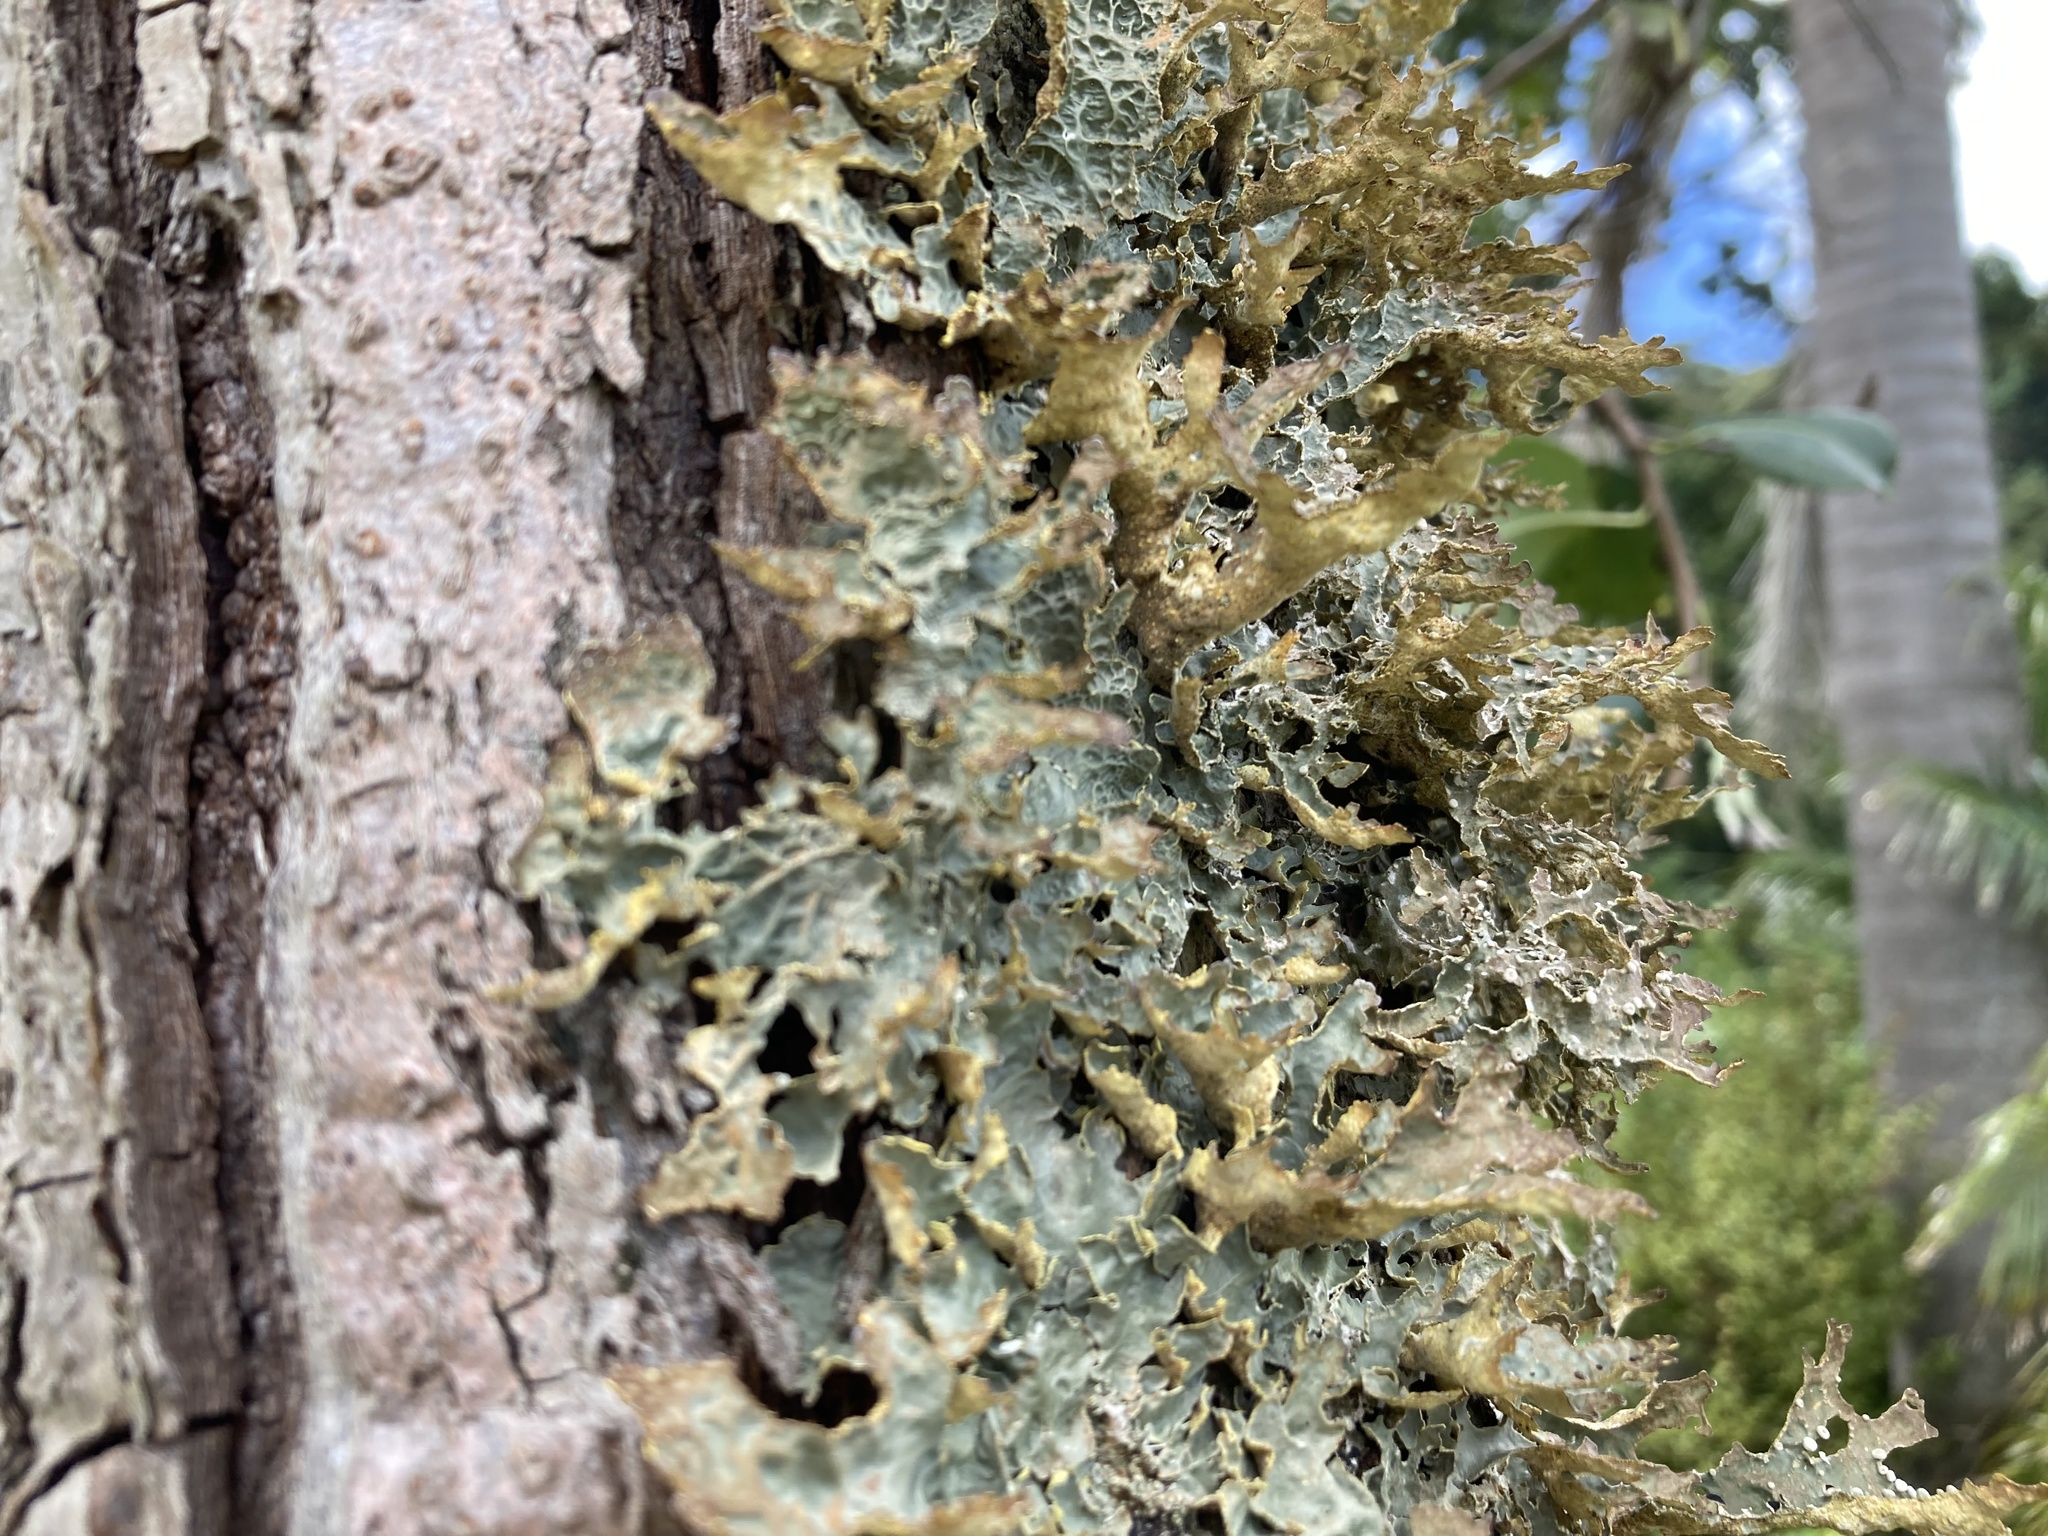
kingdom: Fungi
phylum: Ascomycota
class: Lecanoromycetes
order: Peltigerales
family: Lobariaceae
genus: Pseudocyphellaria
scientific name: Pseudocyphellaria carpoloma
